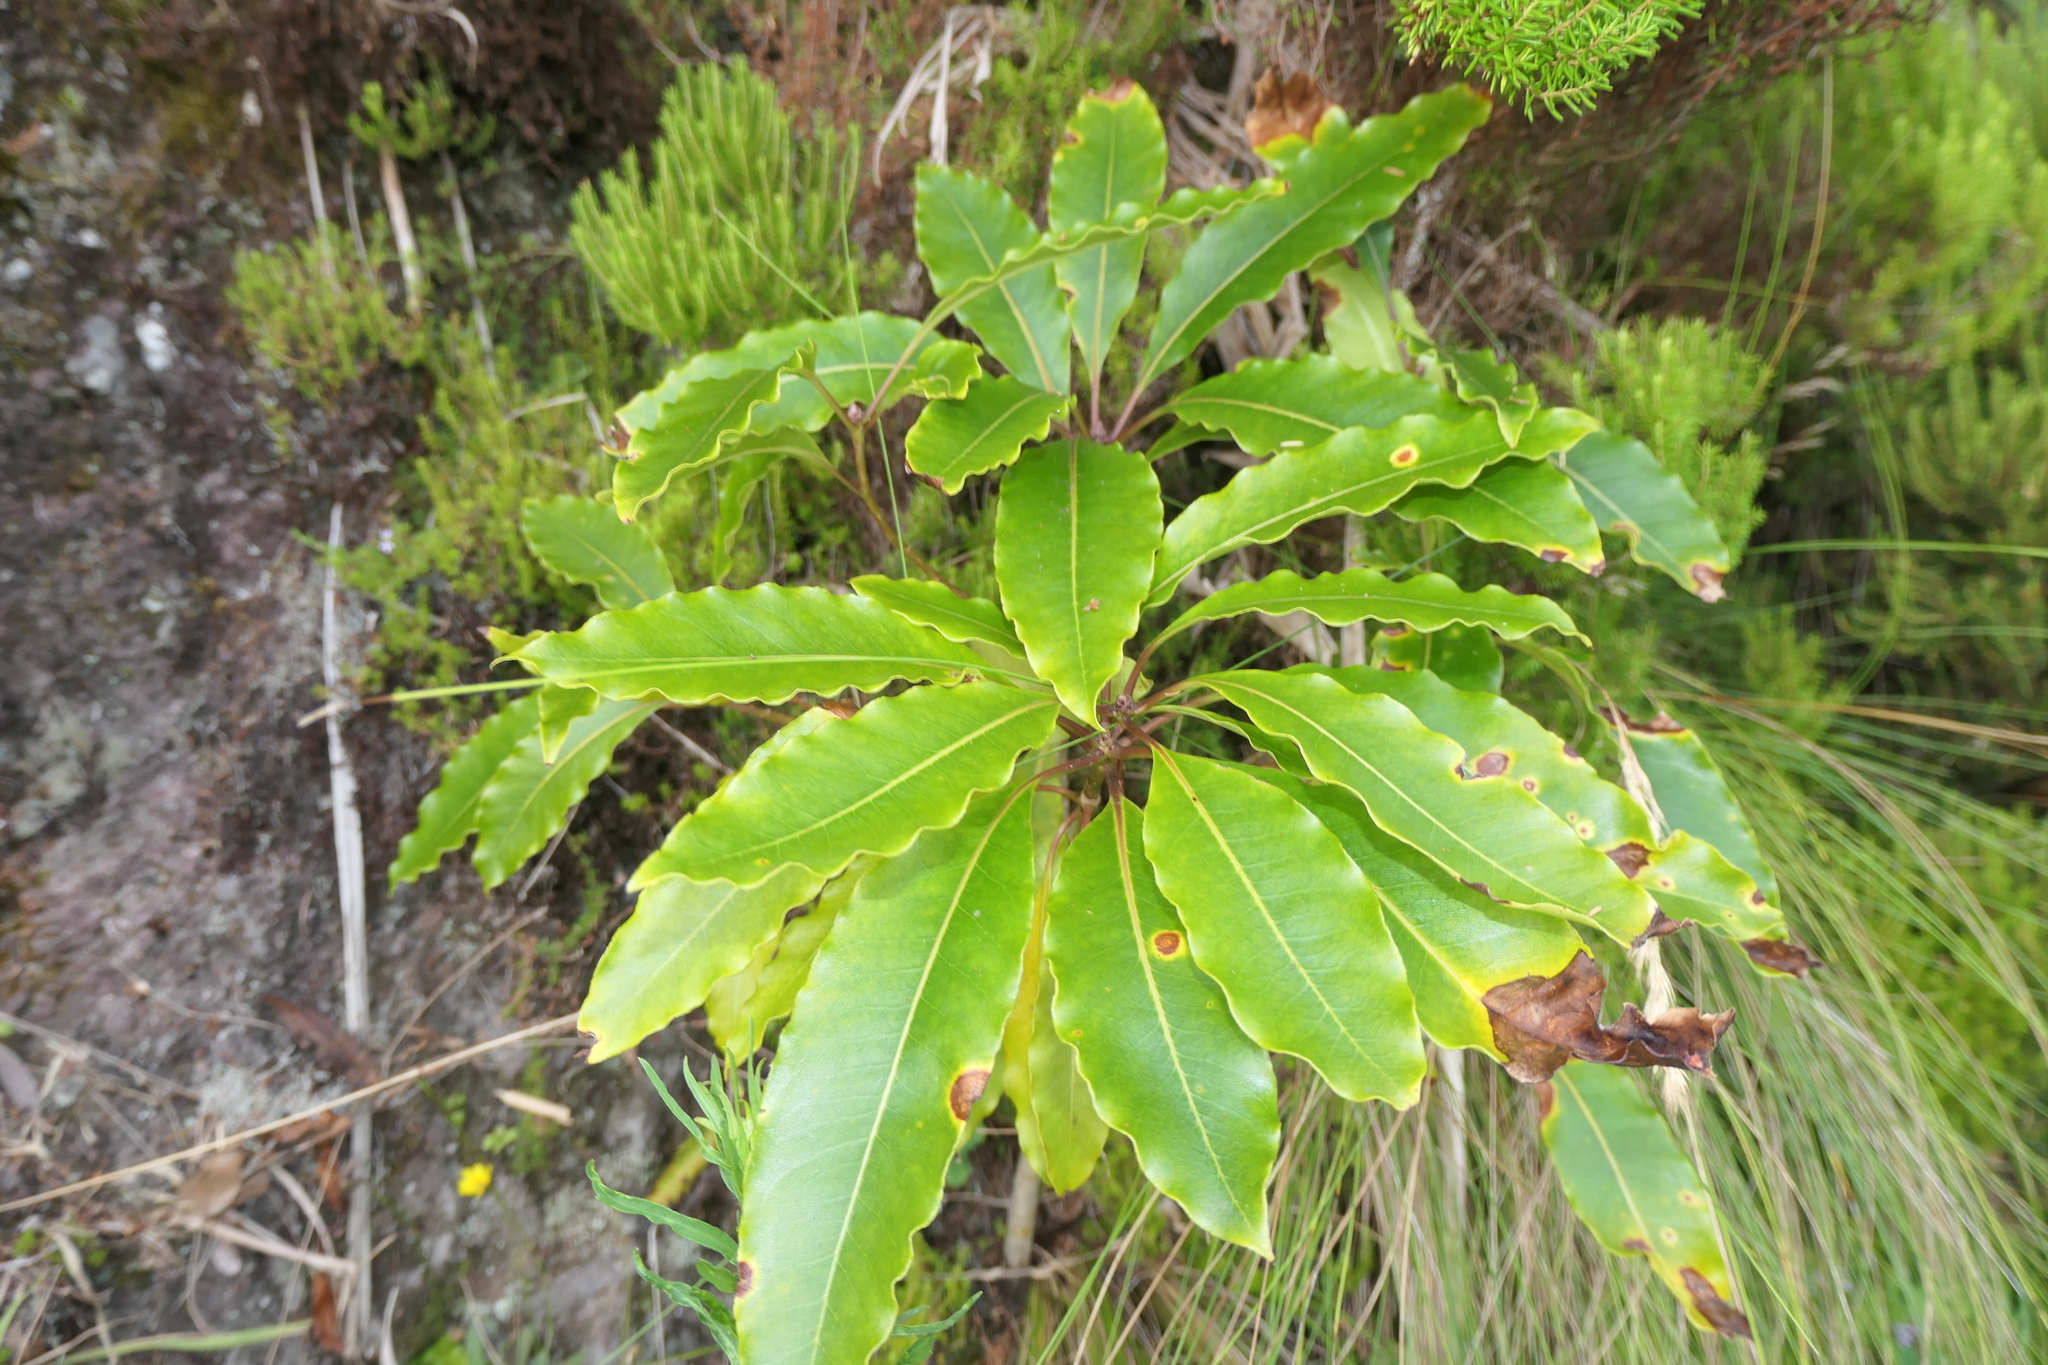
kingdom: Plantae
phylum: Tracheophyta
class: Magnoliopsida
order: Apiales
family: Pittosporaceae
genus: Pittosporum
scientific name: Pittosporum undulatum
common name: Australian cheesewood
